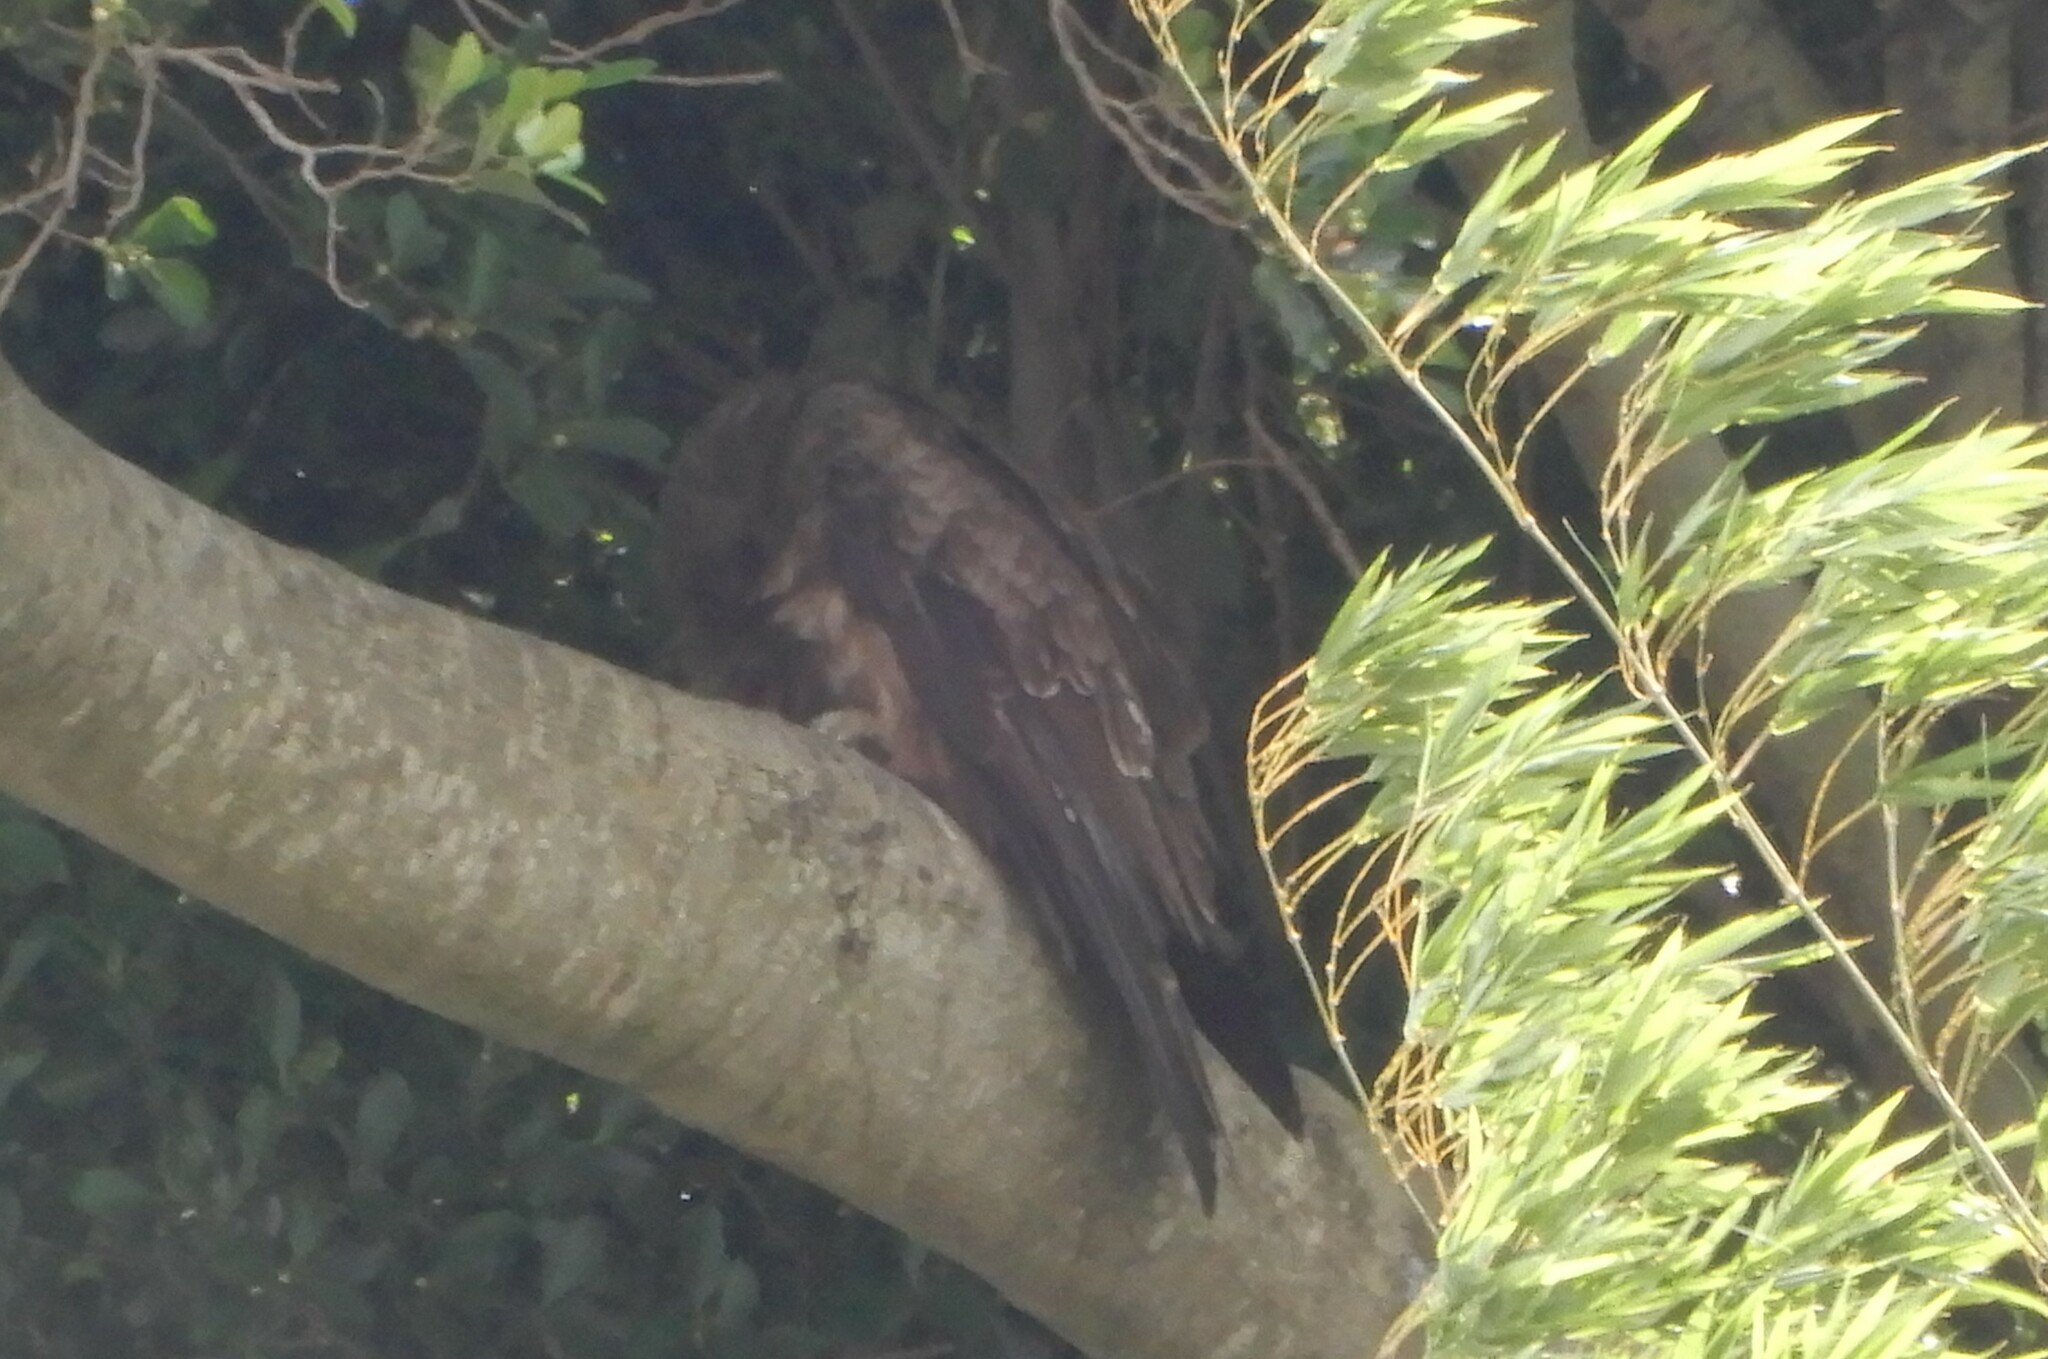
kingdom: Animalia
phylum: Chordata
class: Aves
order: Accipitriformes
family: Accipitridae
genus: Milvus
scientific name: Milvus migrans
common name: Black kite
